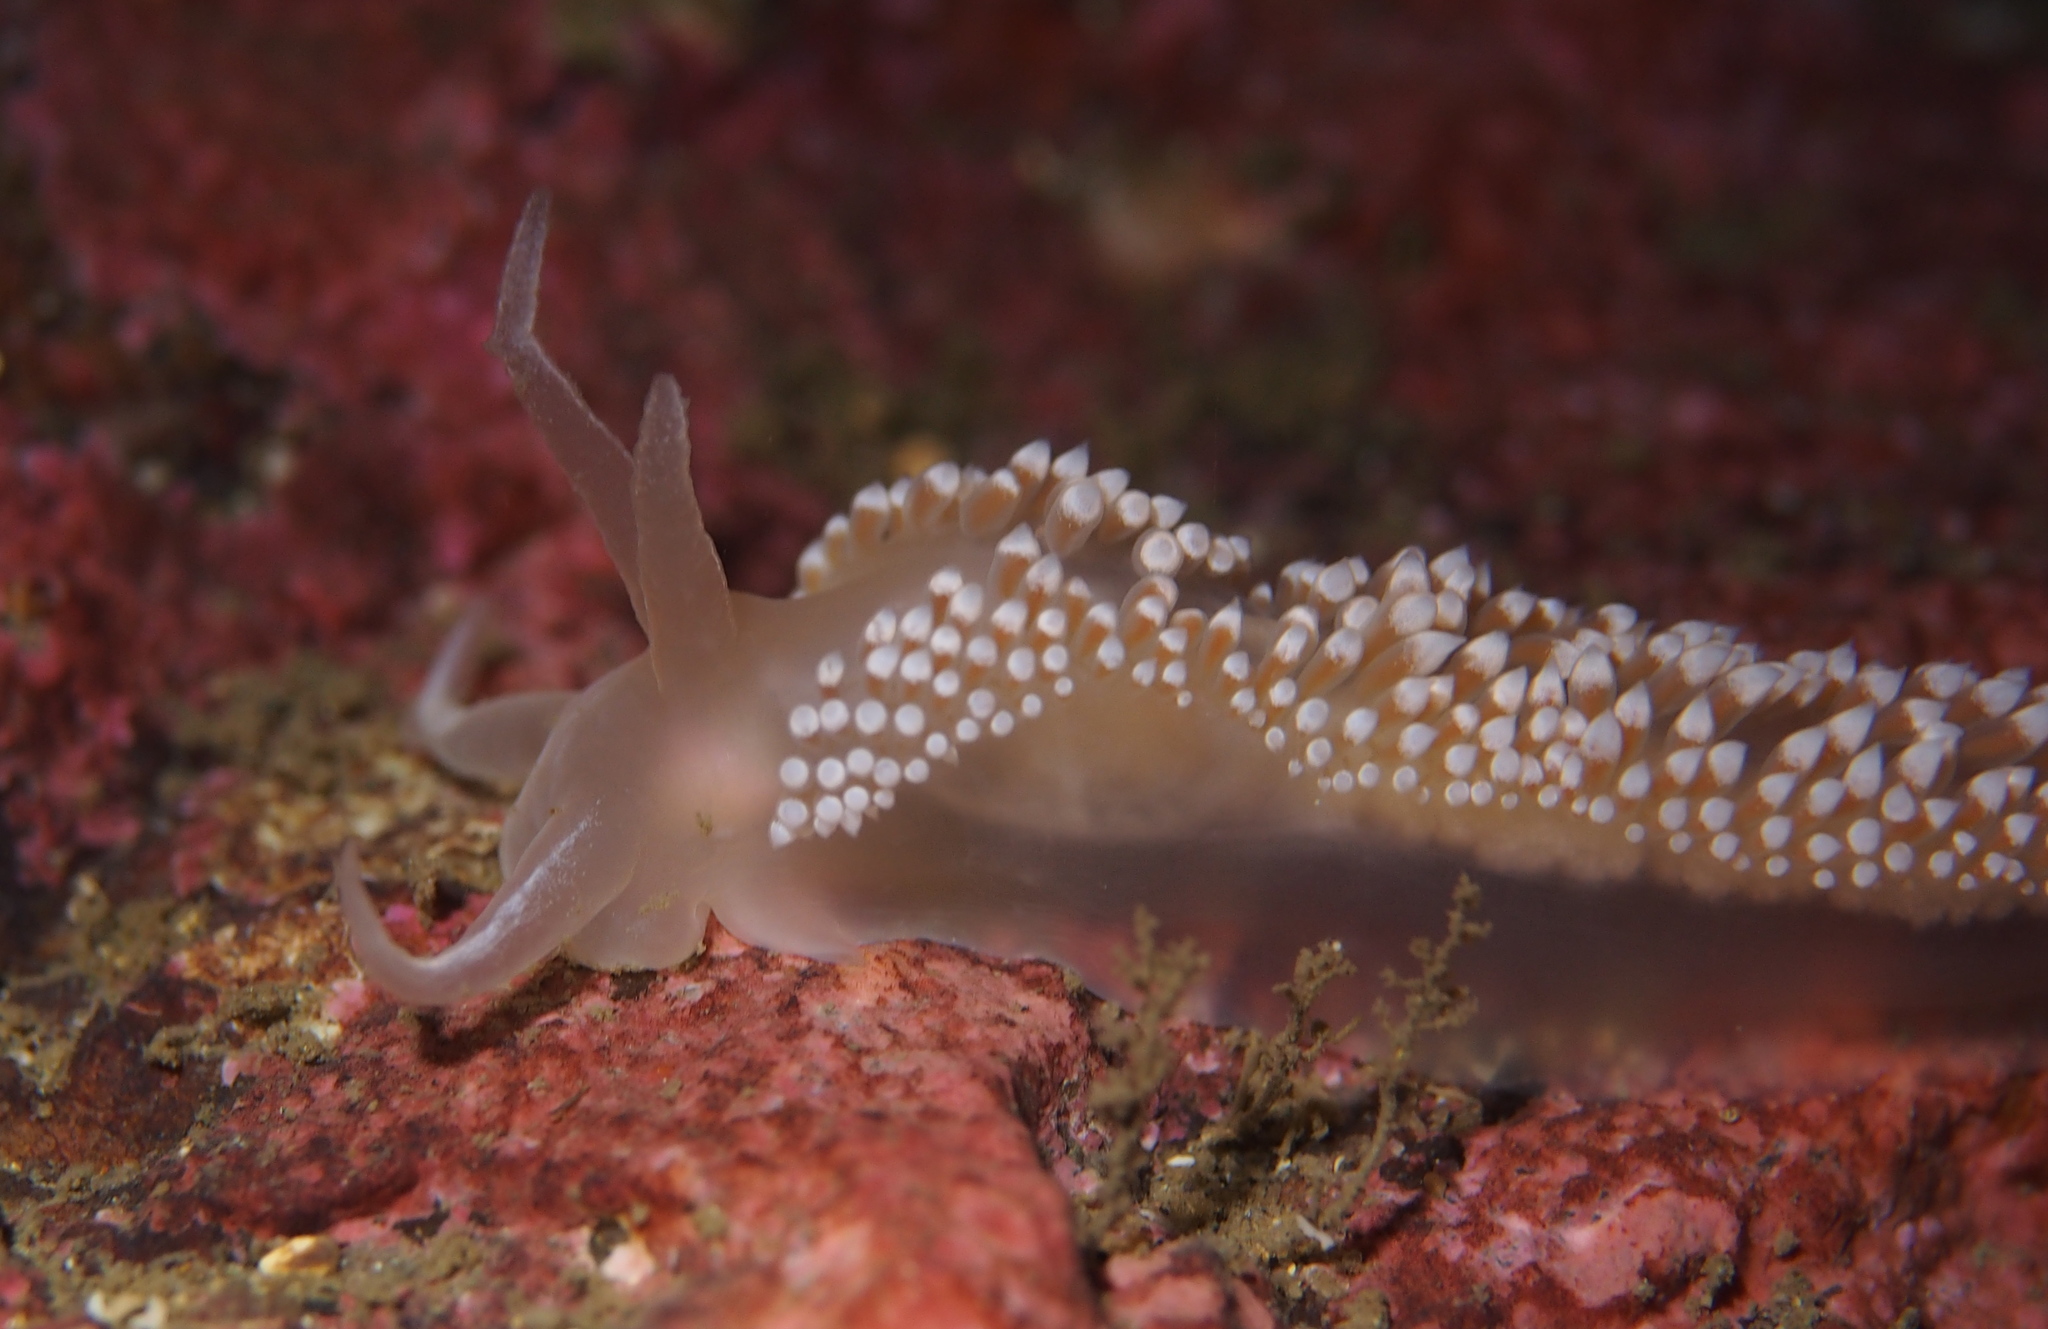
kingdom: Animalia
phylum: Mollusca
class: Gastropoda
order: Nudibranchia
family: Coryphellidae
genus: Coryphella
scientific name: Coryphella verrucosa
